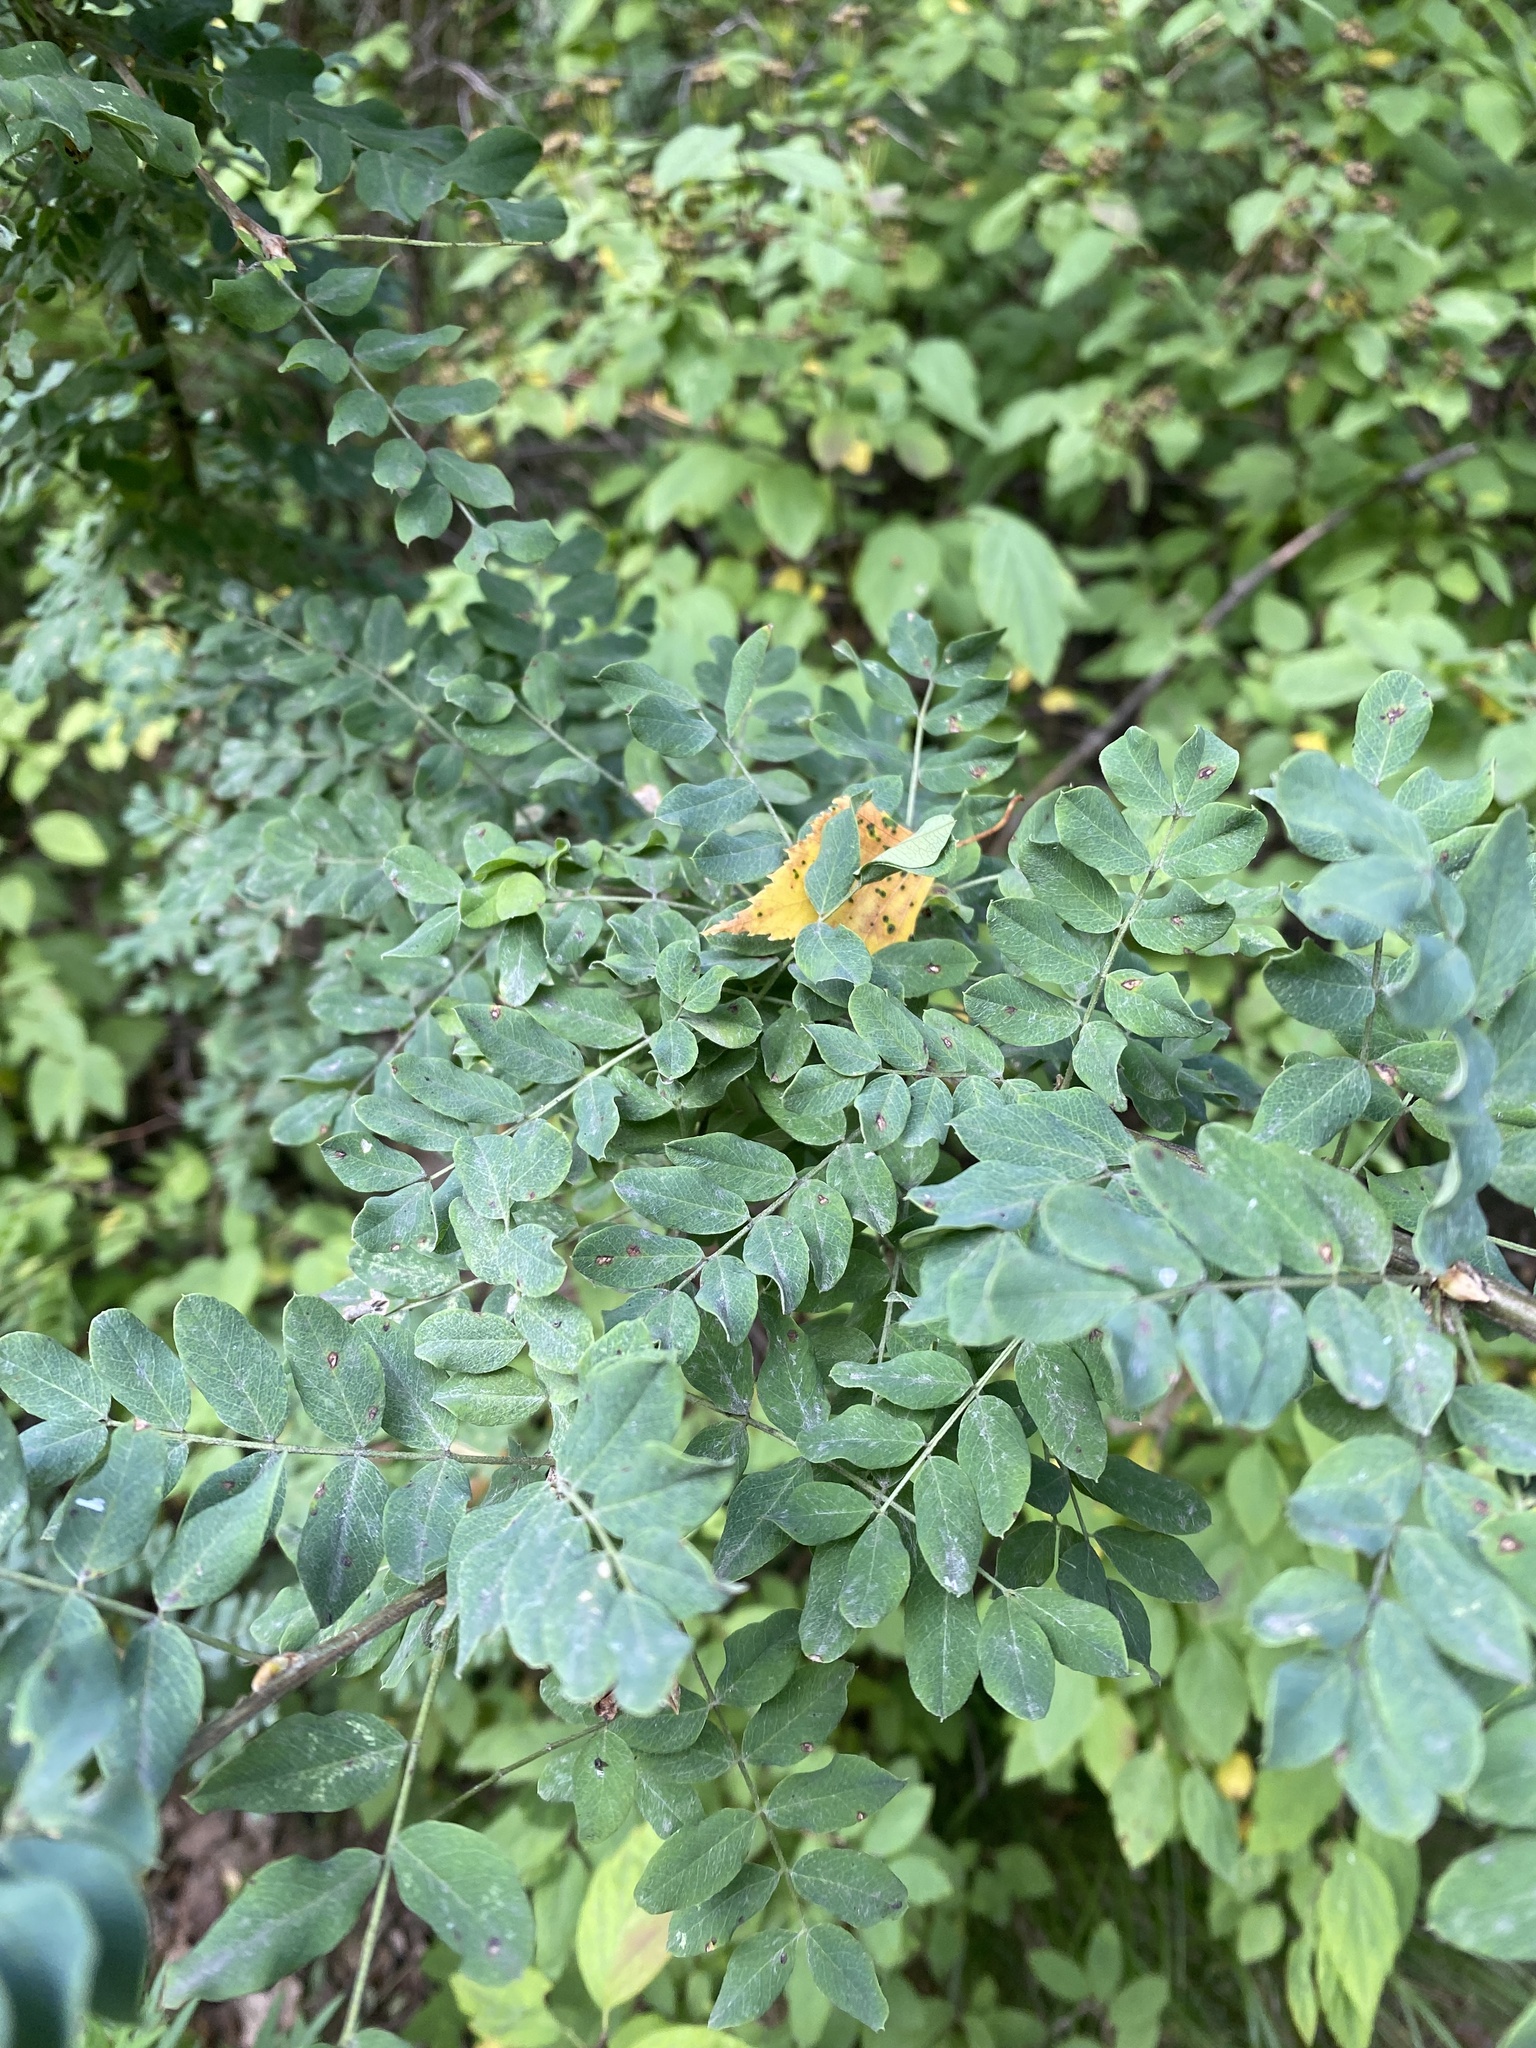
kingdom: Plantae
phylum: Tracheophyta
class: Magnoliopsida
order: Fabales
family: Fabaceae
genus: Caragana
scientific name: Caragana arborescens
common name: Siberian peashrub
